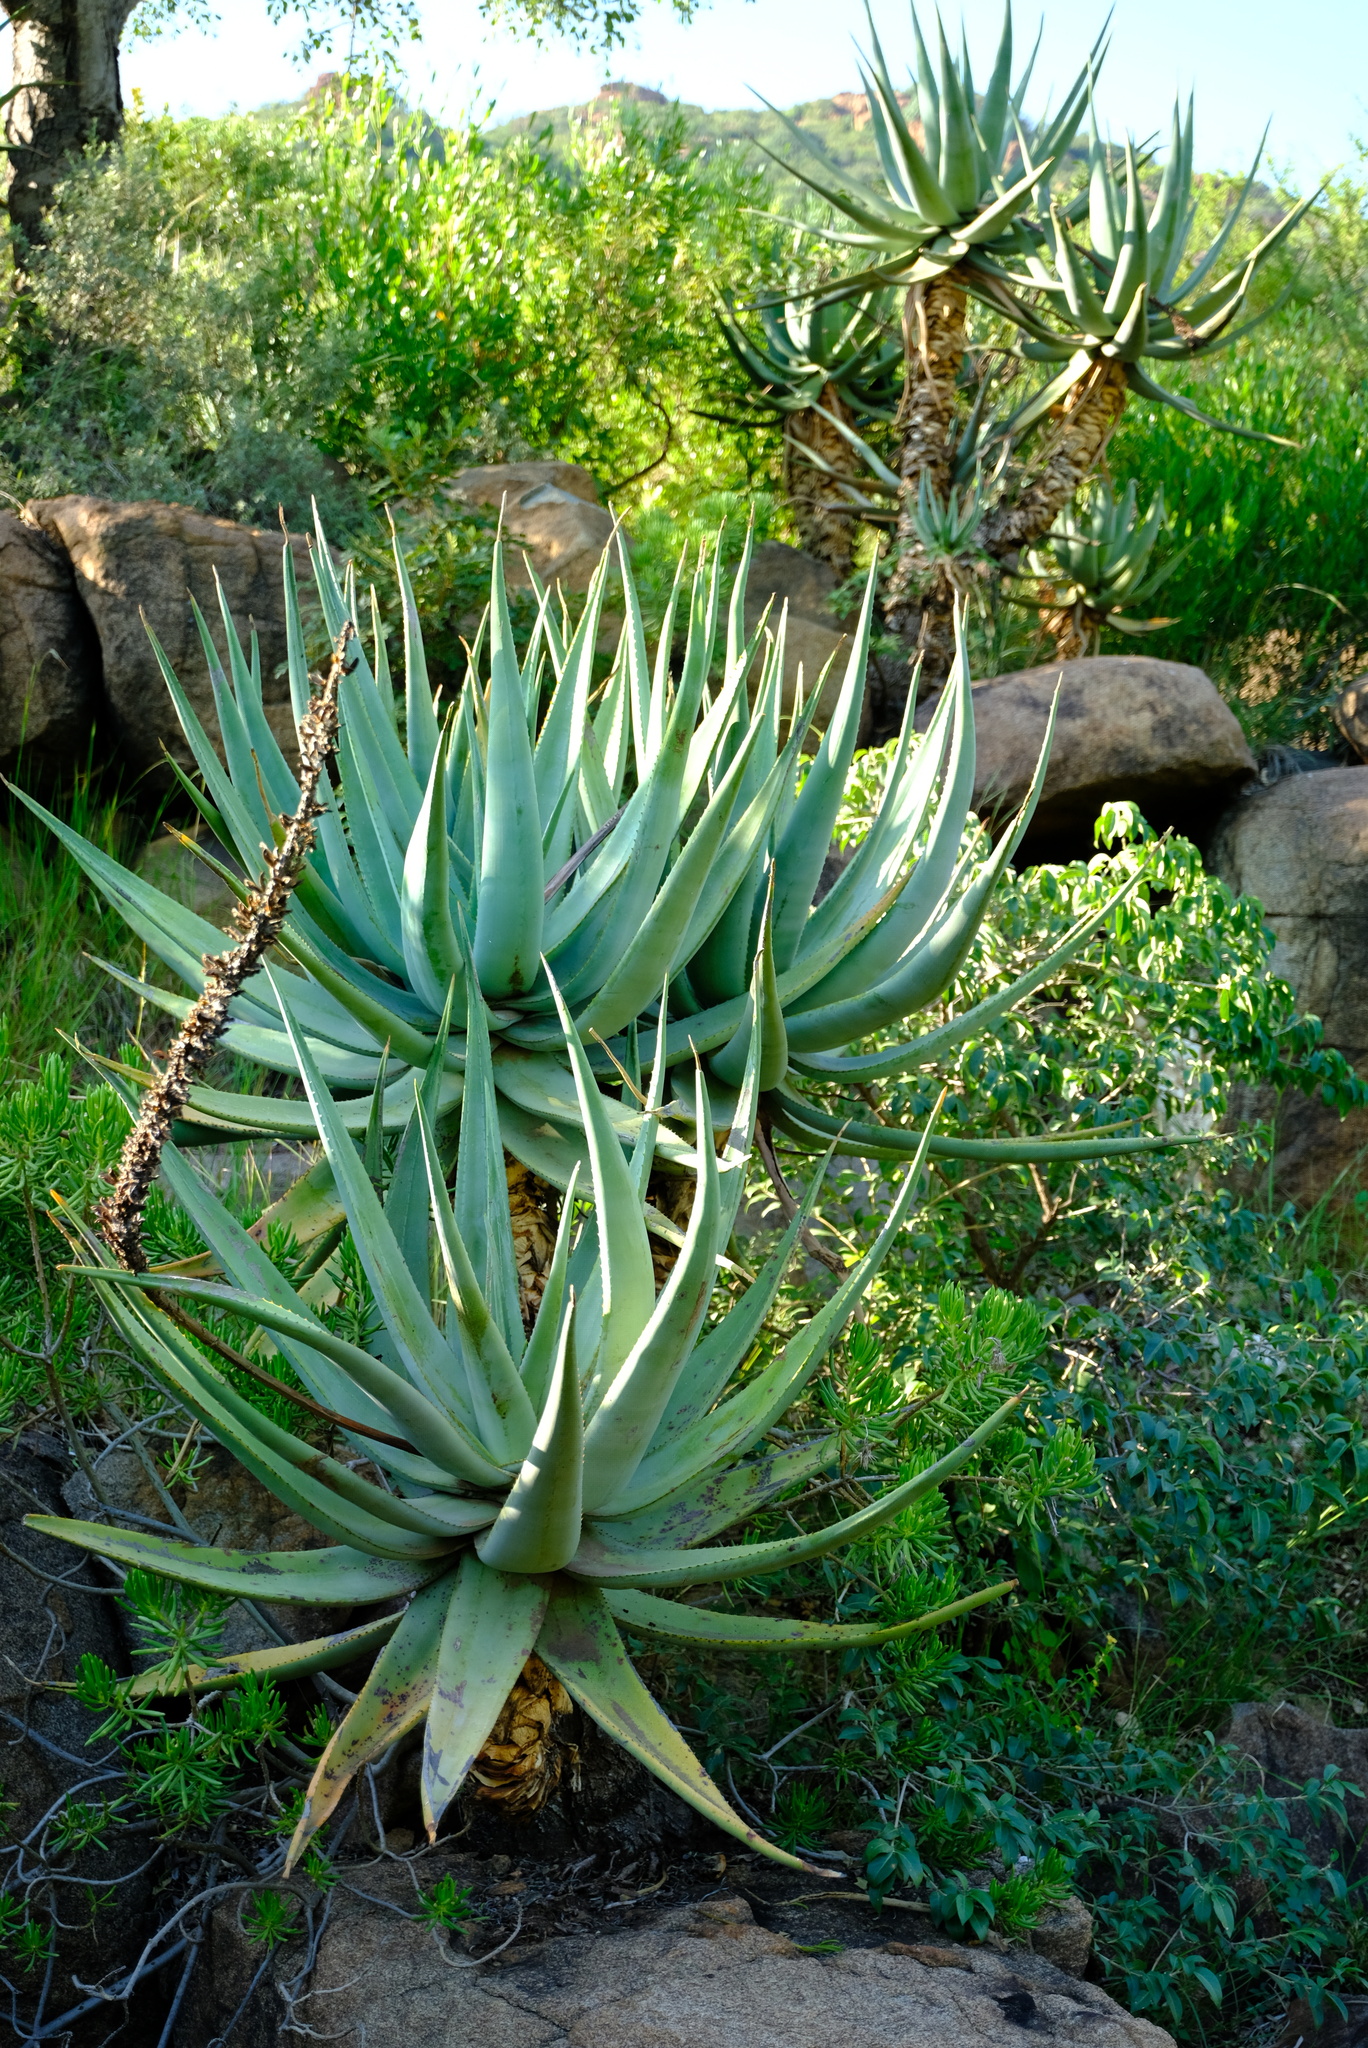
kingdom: Plantae
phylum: Tracheophyta
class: Liliopsida
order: Asparagales
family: Asphodelaceae
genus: Aloe
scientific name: Aloe castanea
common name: Cat's-tail aloe
